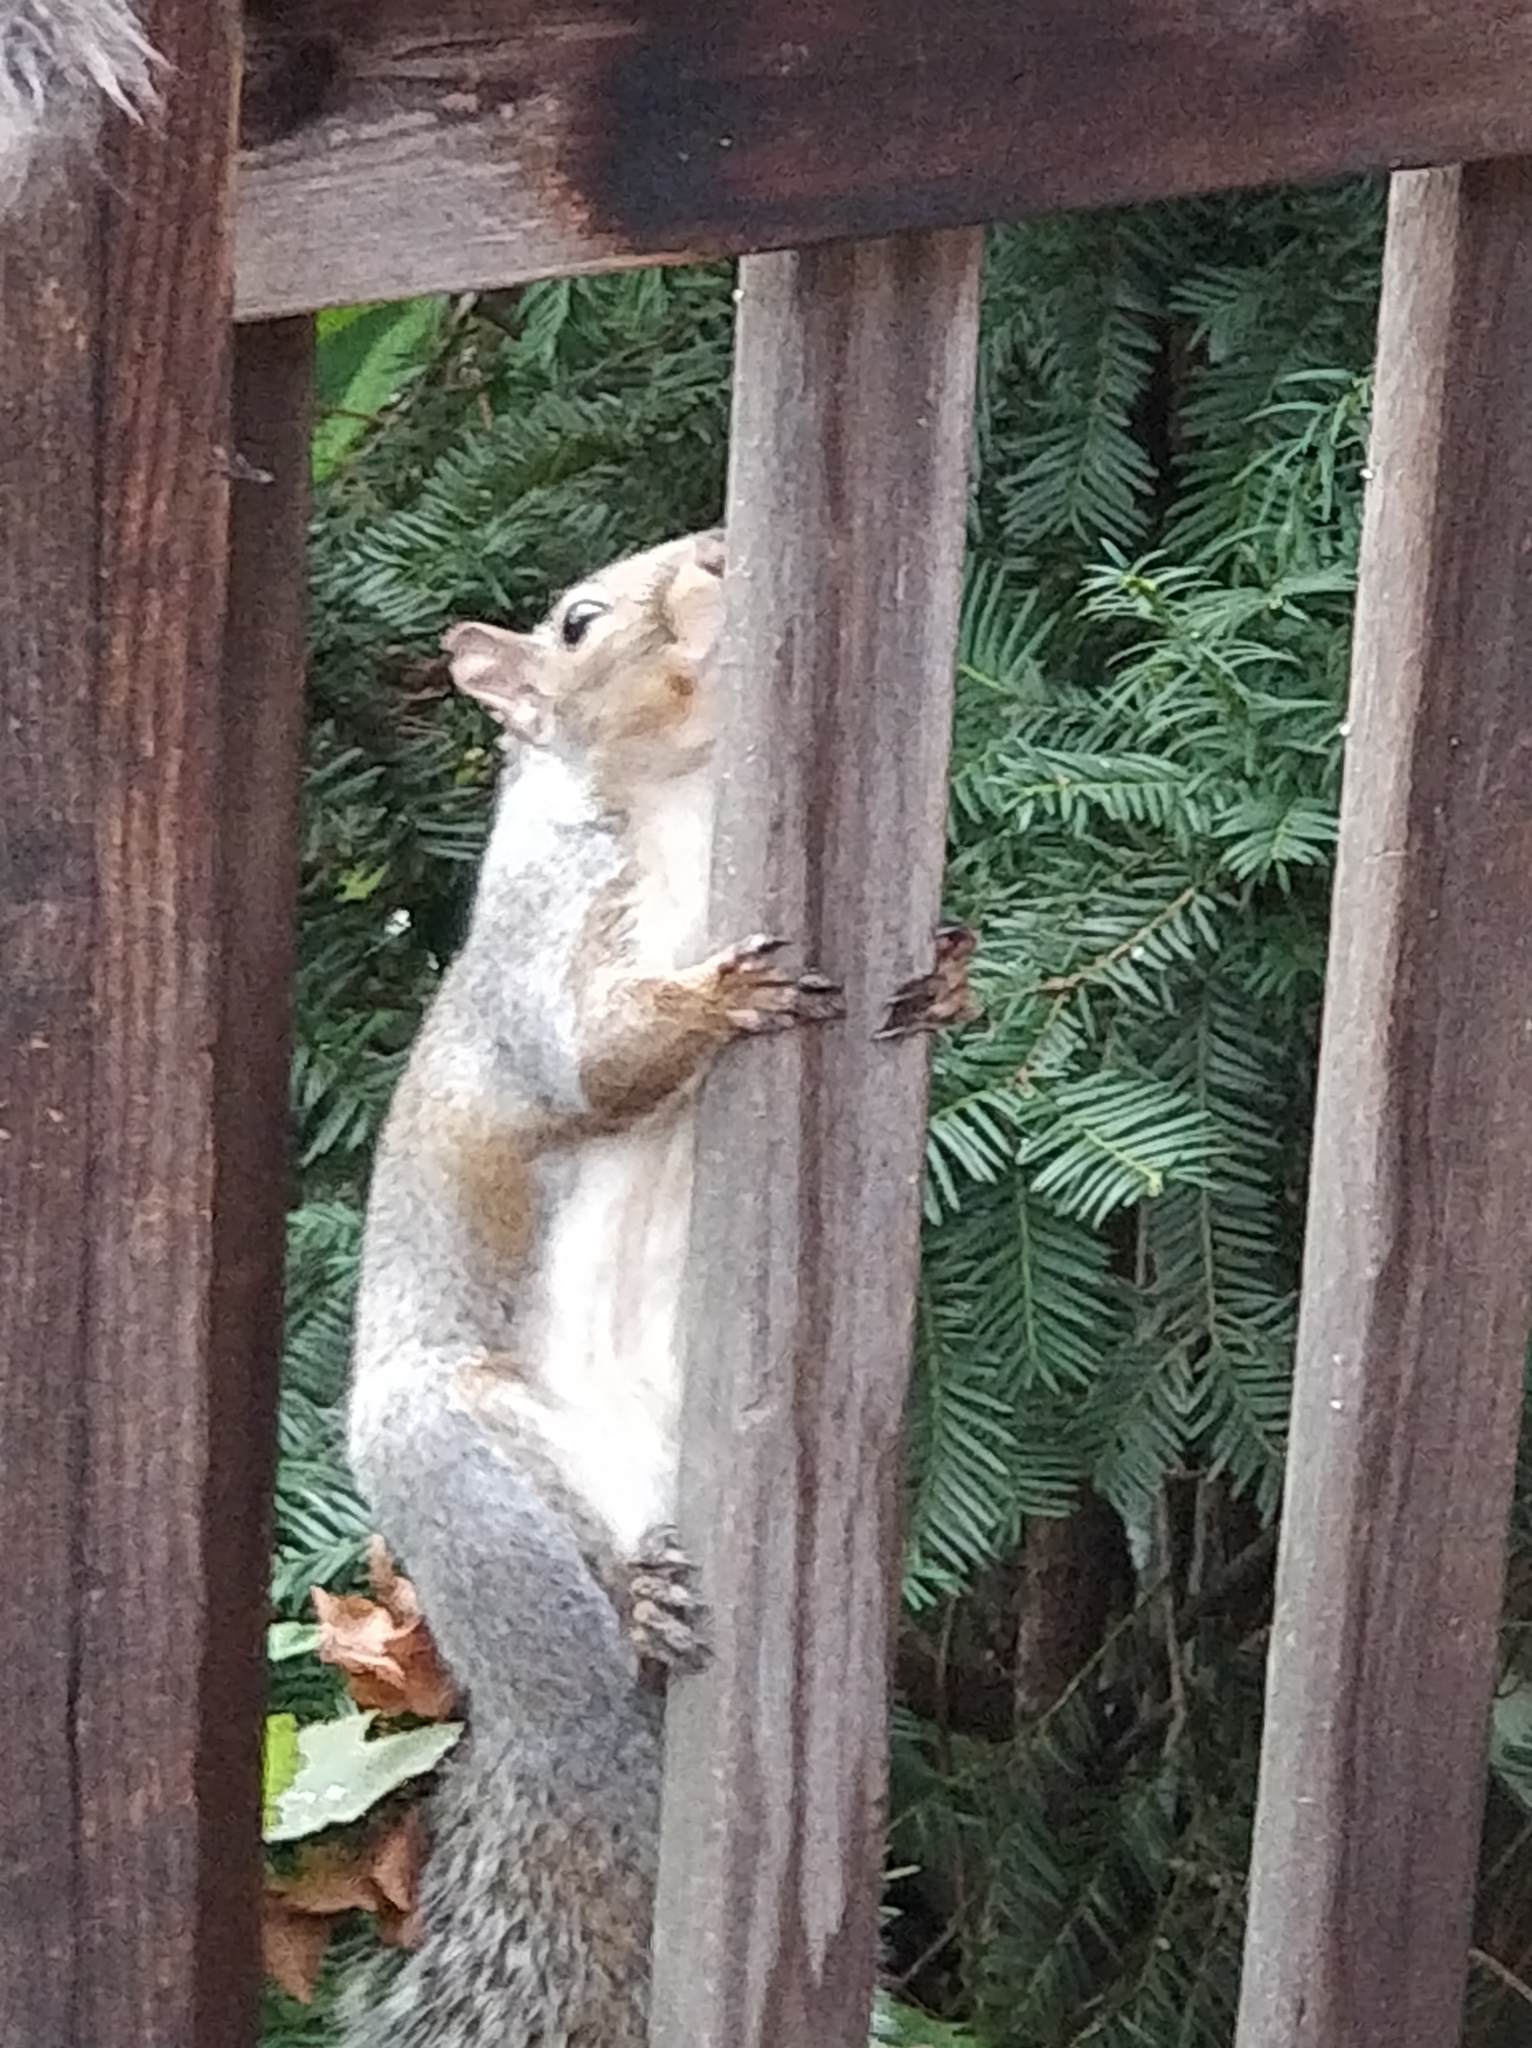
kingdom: Animalia
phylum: Chordata
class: Mammalia
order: Rodentia
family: Sciuridae
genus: Sciurus
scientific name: Sciurus carolinensis
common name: Eastern gray squirrel
